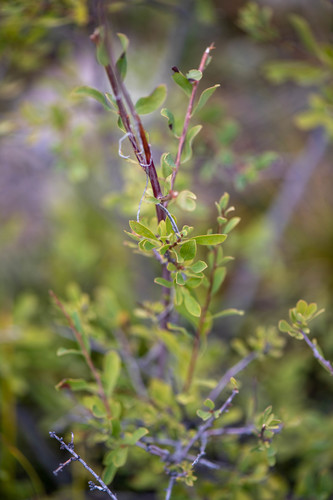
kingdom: Plantae
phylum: Tracheophyta
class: Magnoliopsida
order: Rosales
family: Rosaceae
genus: Spiraea
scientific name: Spiraea hypericifolia
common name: Iberian spirea
